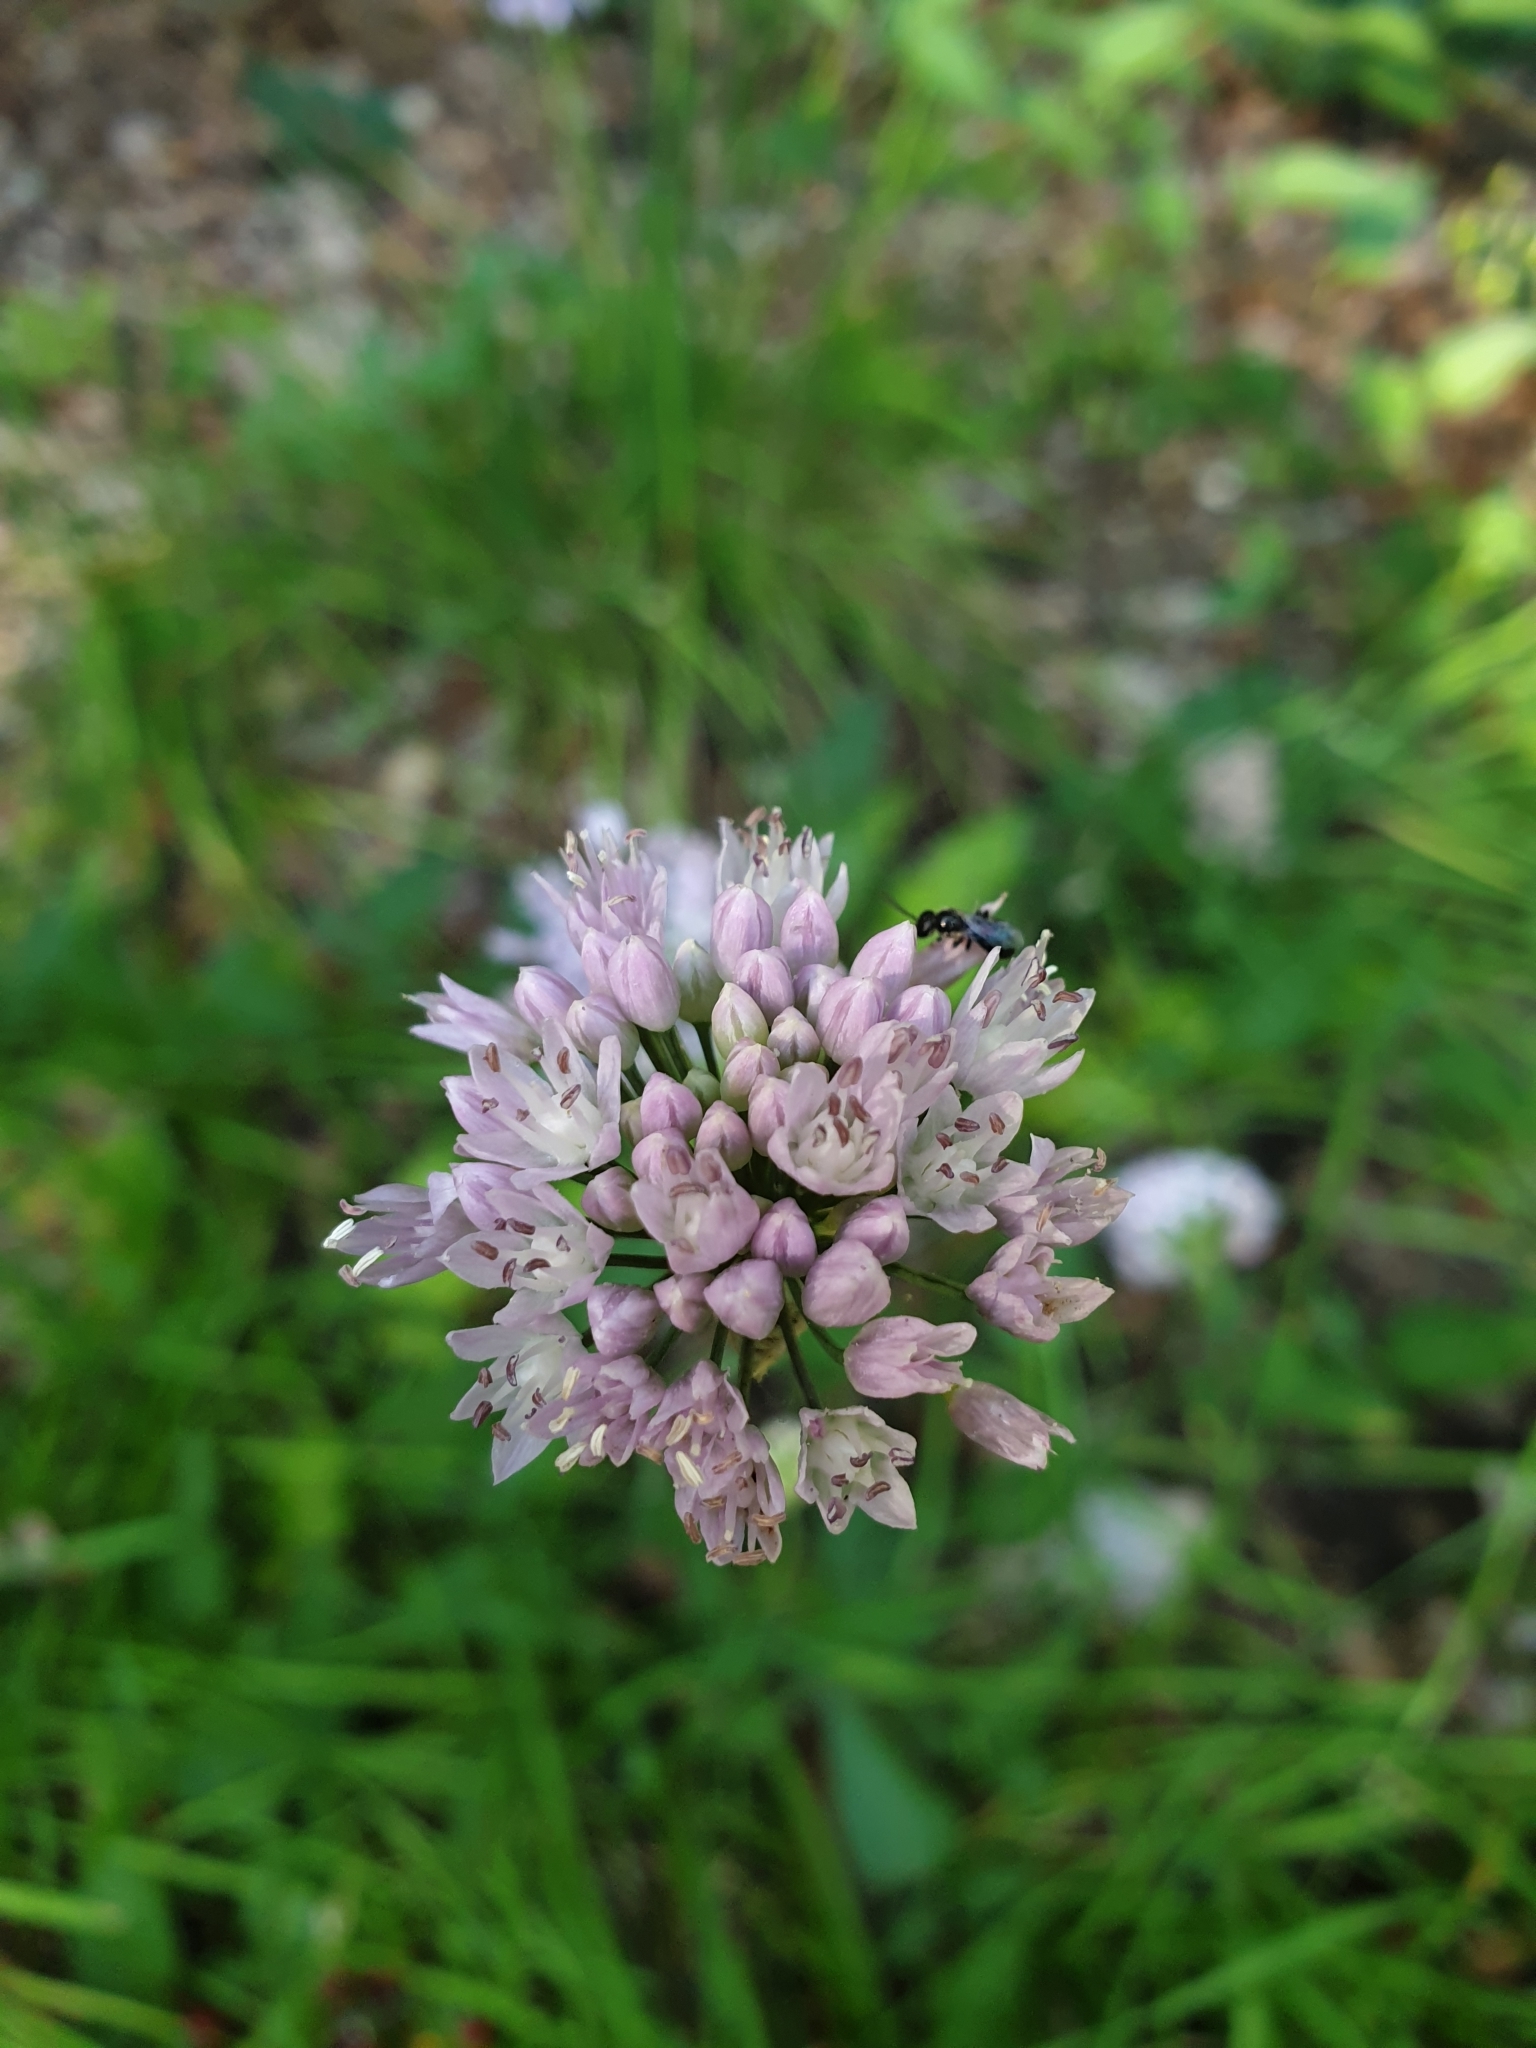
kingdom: Plantae
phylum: Tracheophyta
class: Liliopsida
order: Asparagales
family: Amaryllidaceae
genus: Allium
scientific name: Allium lusitanicum
